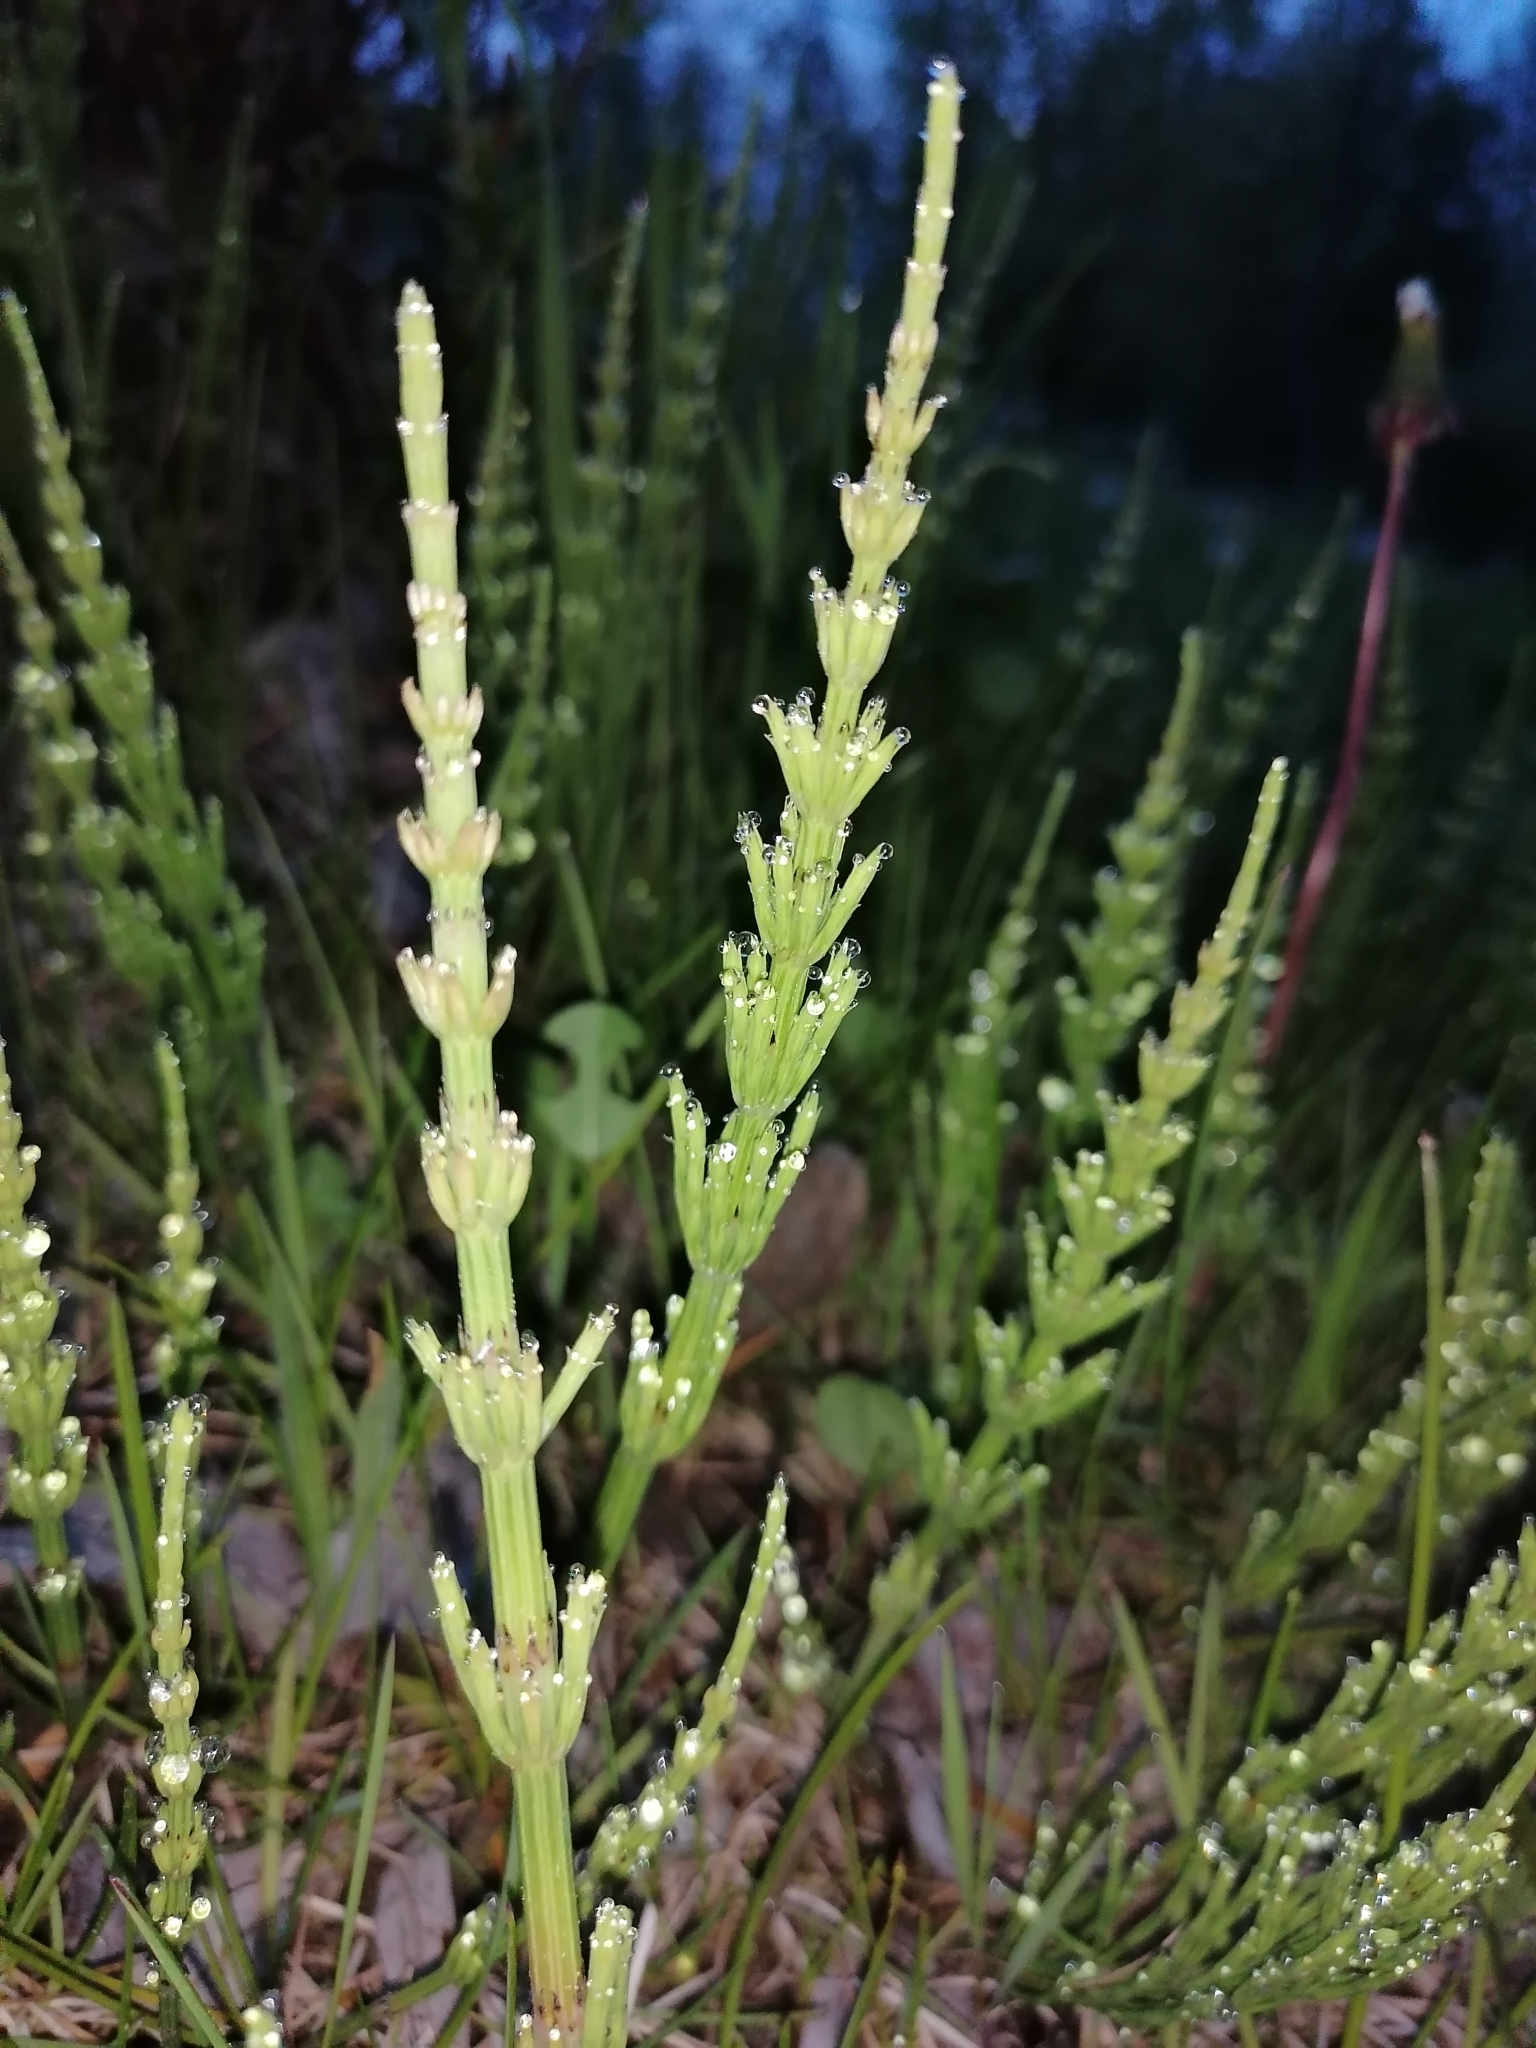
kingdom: Plantae
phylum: Tracheophyta
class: Polypodiopsida
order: Equisetales
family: Equisetaceae
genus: Equisetum
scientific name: Equisetum arvense
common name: Field horsetail
